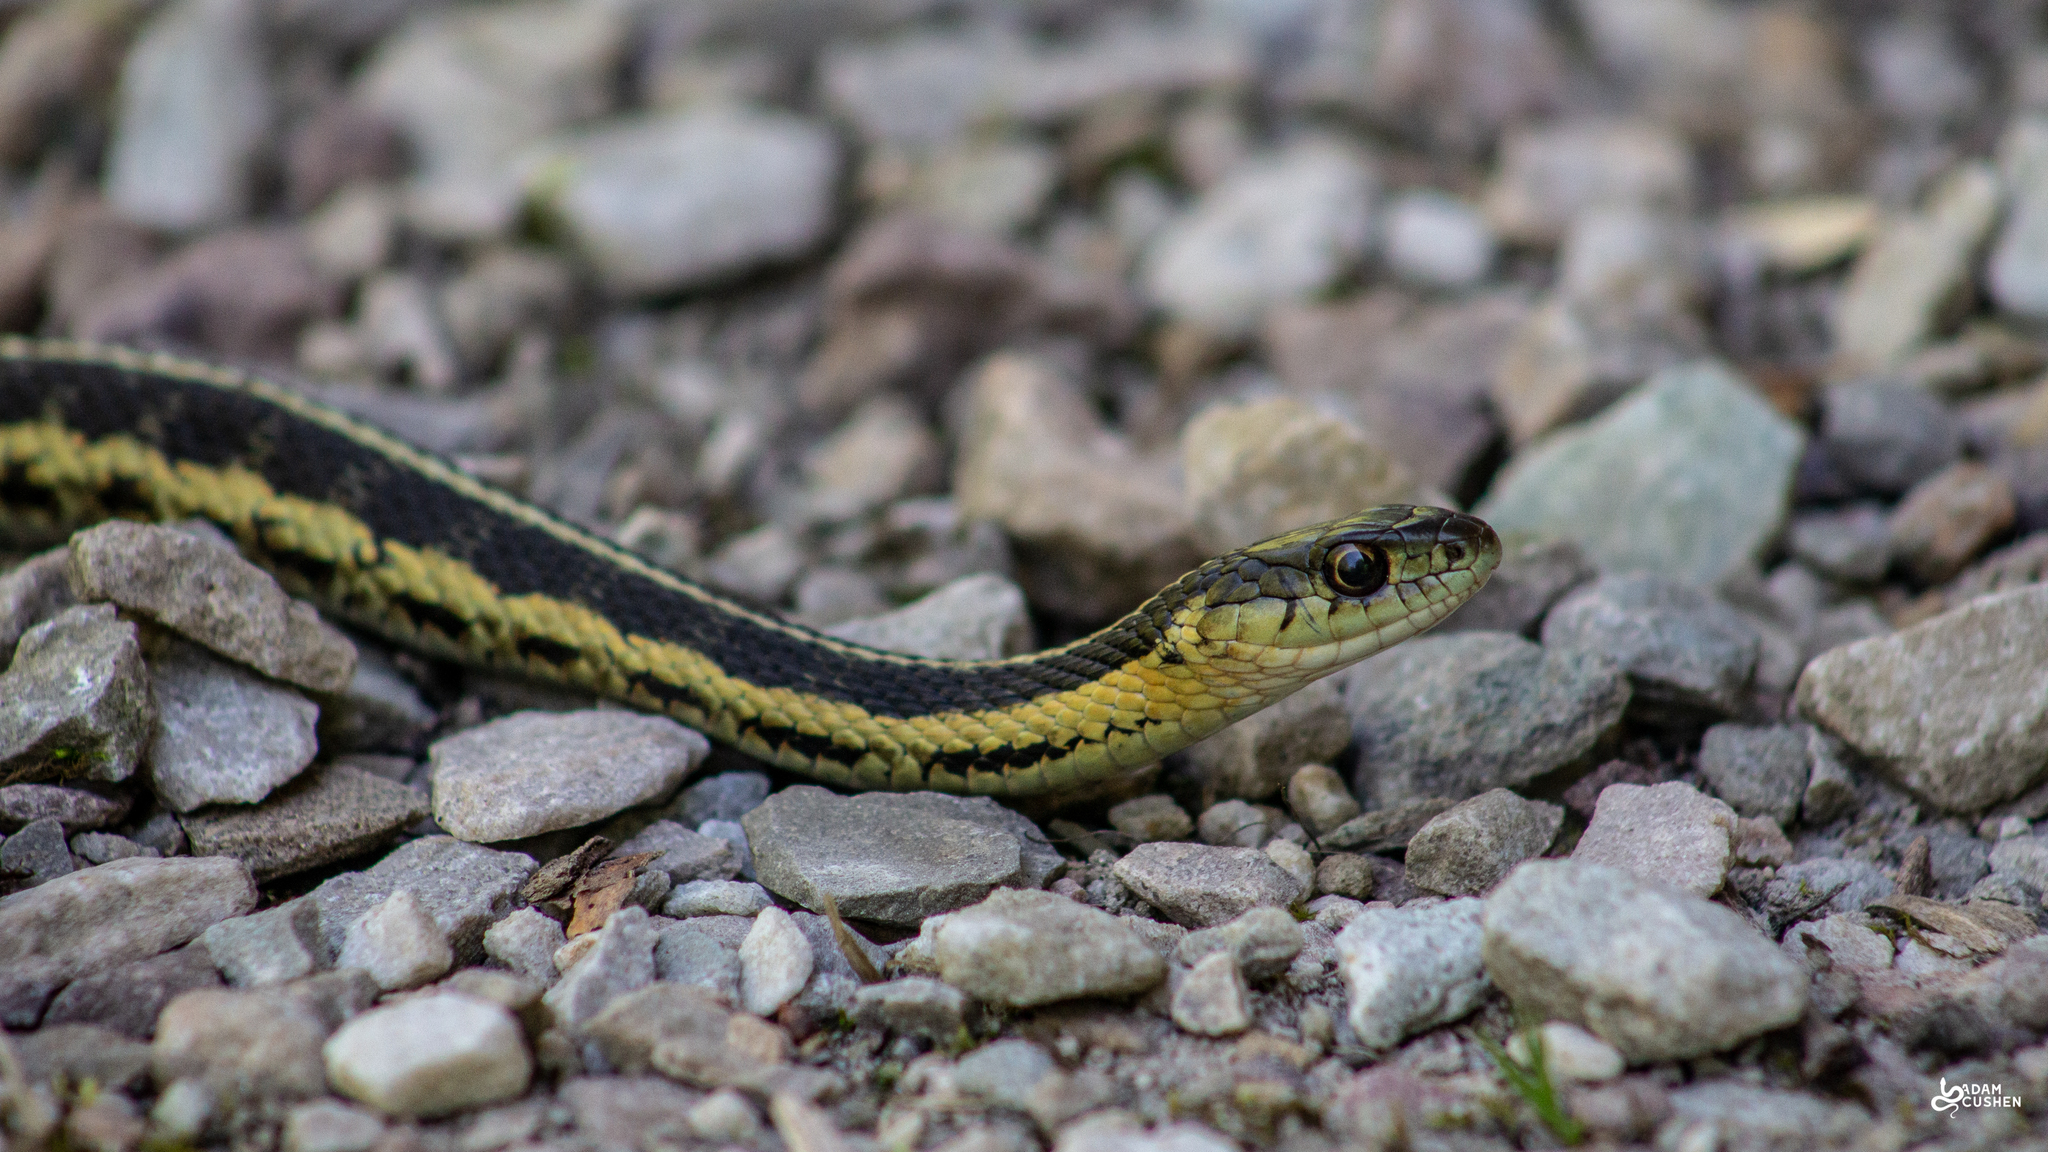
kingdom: Animalia
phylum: Chordata
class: Squamata
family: Colubridae
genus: Thamnophis
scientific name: Thamnophis sirtalis
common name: Common garter snake
